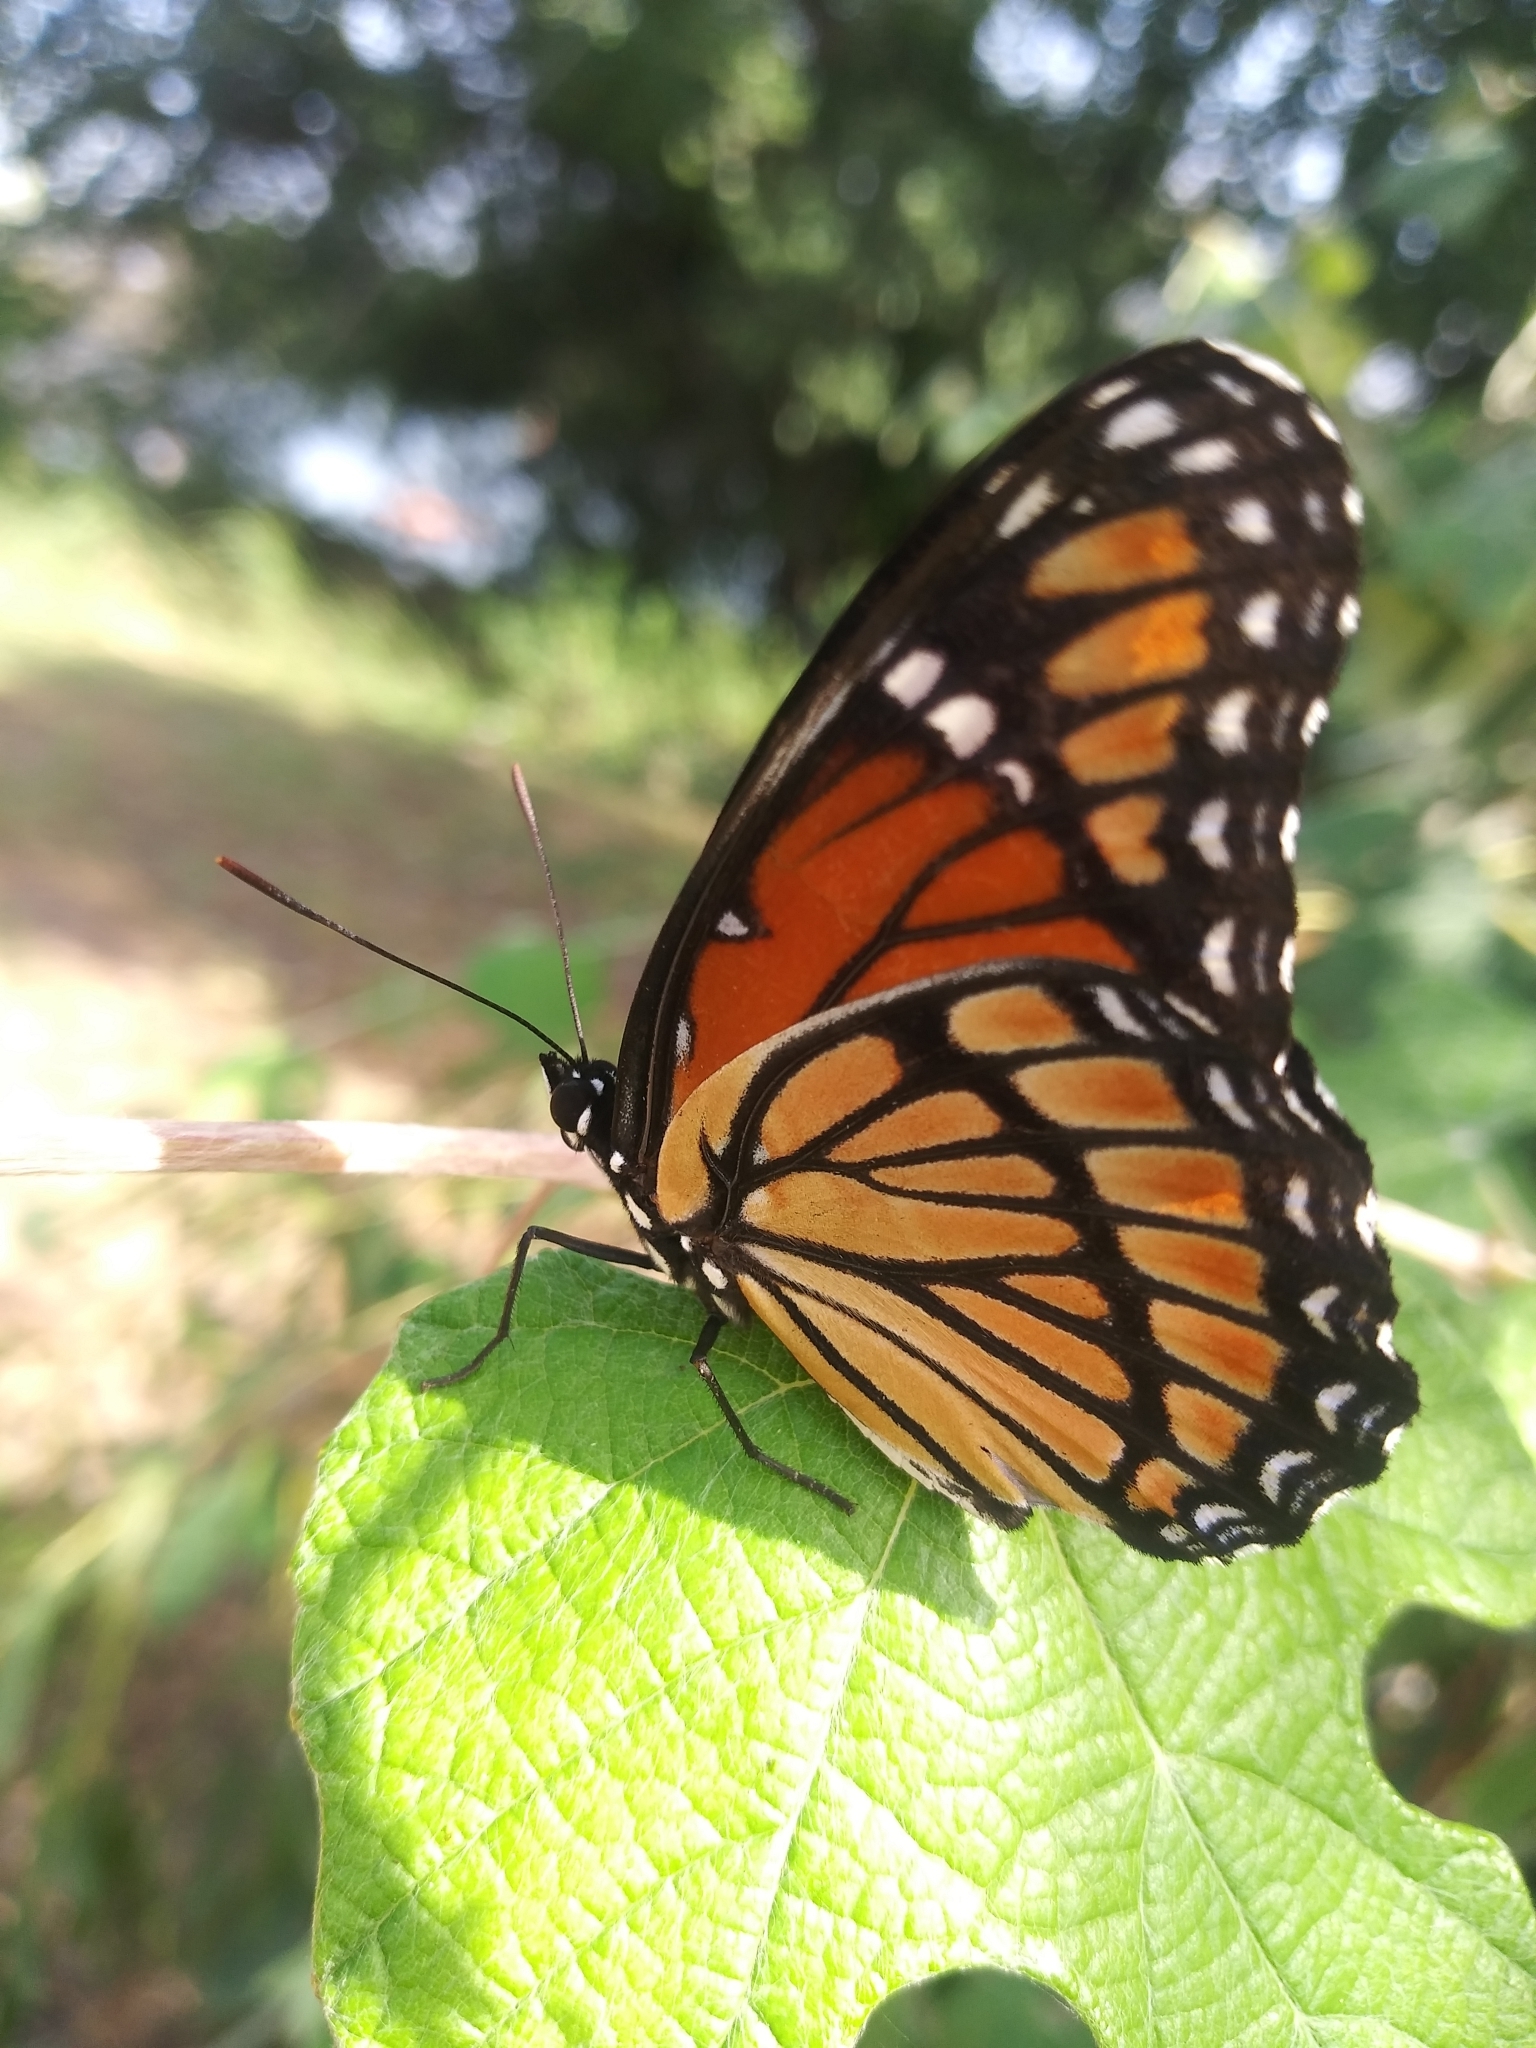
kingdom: Animalia
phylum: Arthropoda
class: Insecta
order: Lepidoptera
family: Nymphalidae
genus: Limenitis
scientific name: Limenitis archippus
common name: Viceroy
